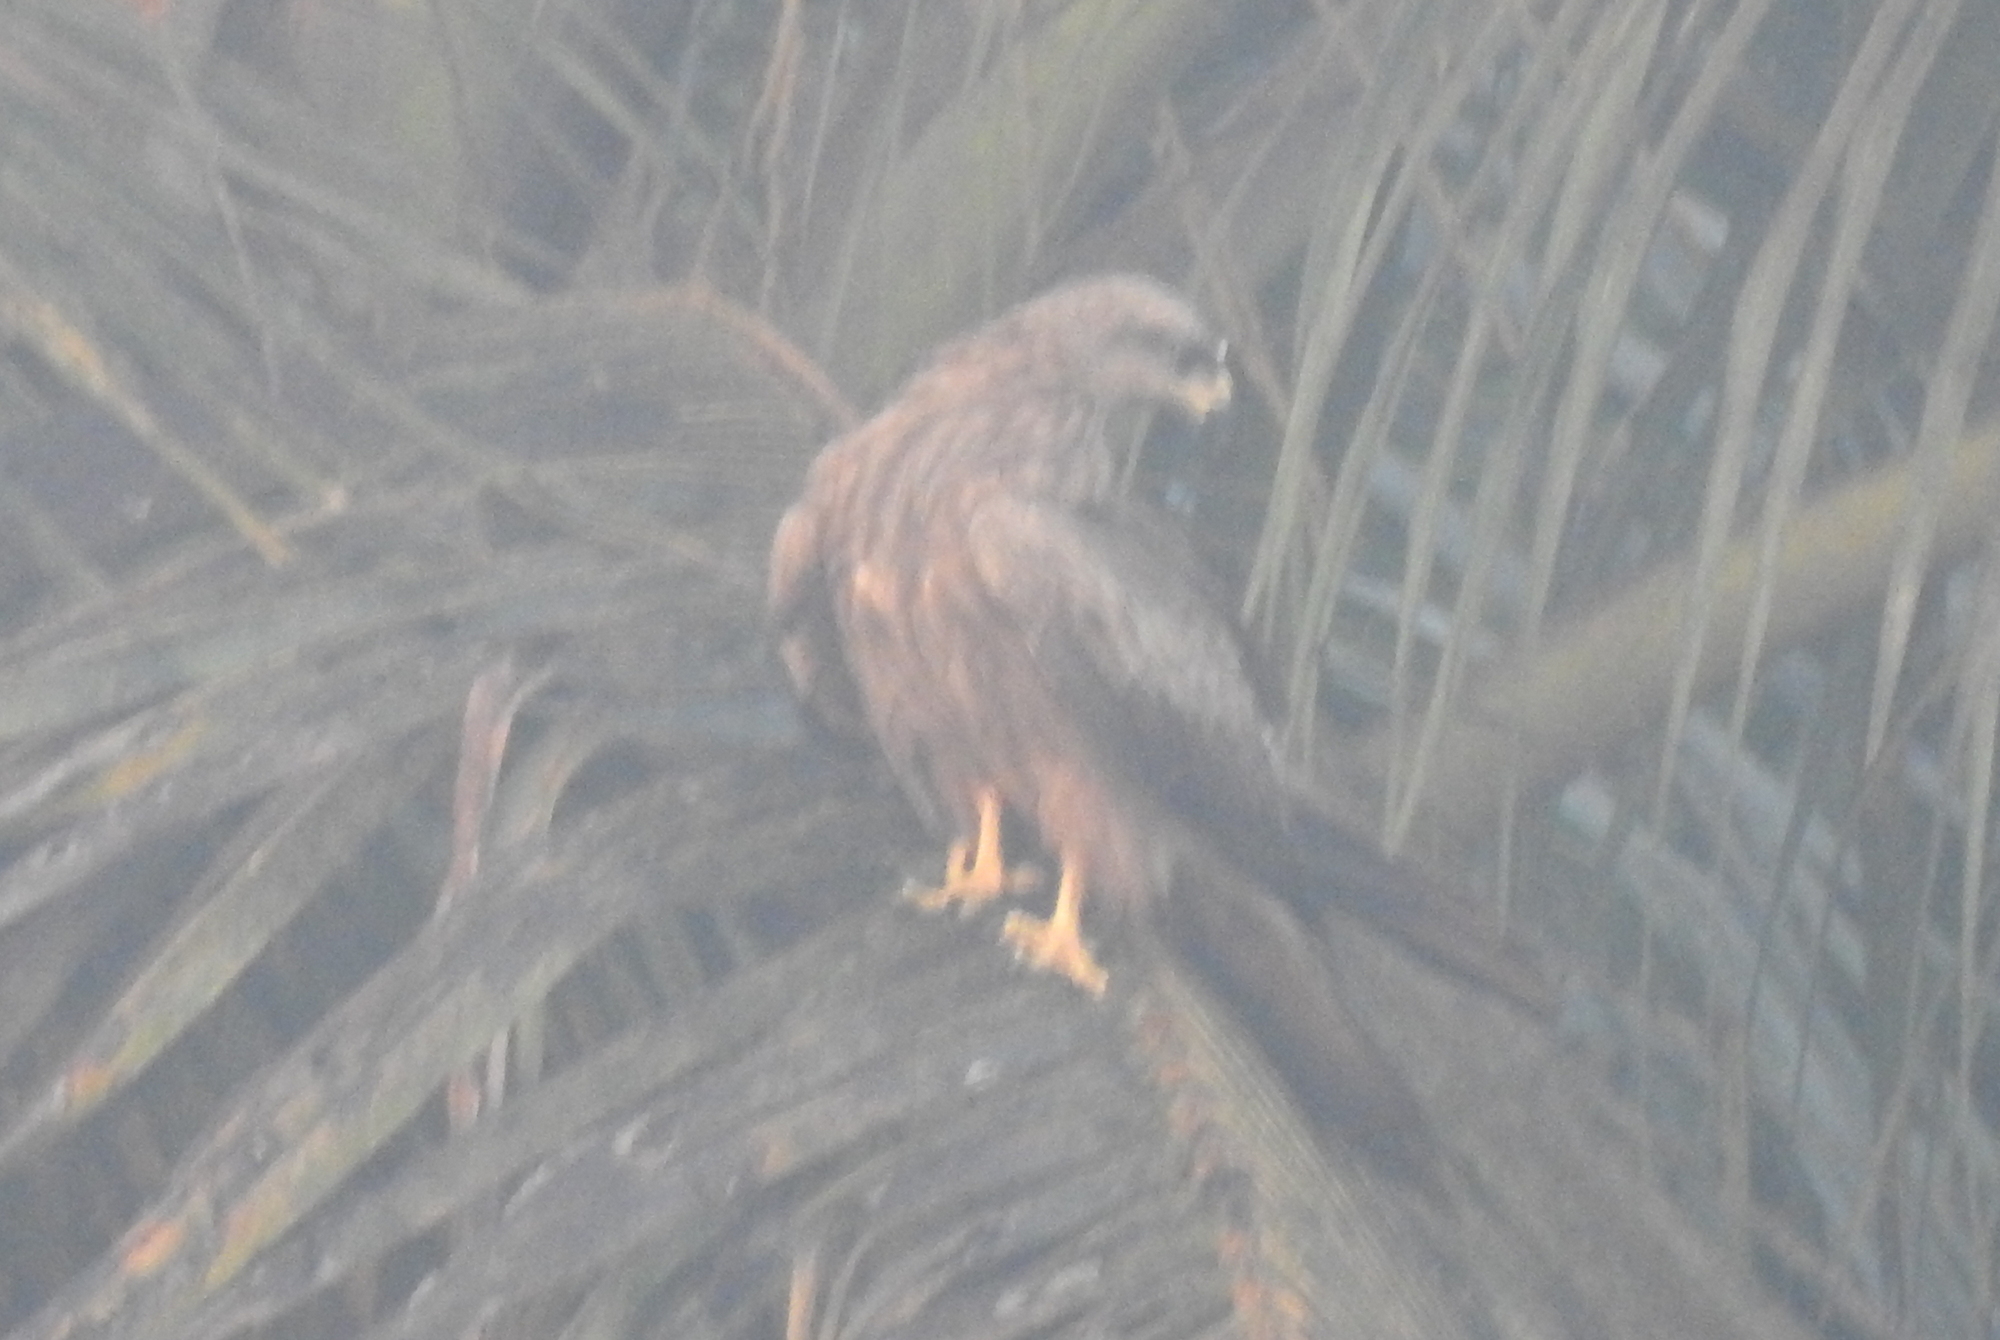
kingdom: Animalia
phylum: Chordata
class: Aves
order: Accipitriformes
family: Accipitridae
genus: Milvus
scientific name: Milvus migrans
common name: Black kite
